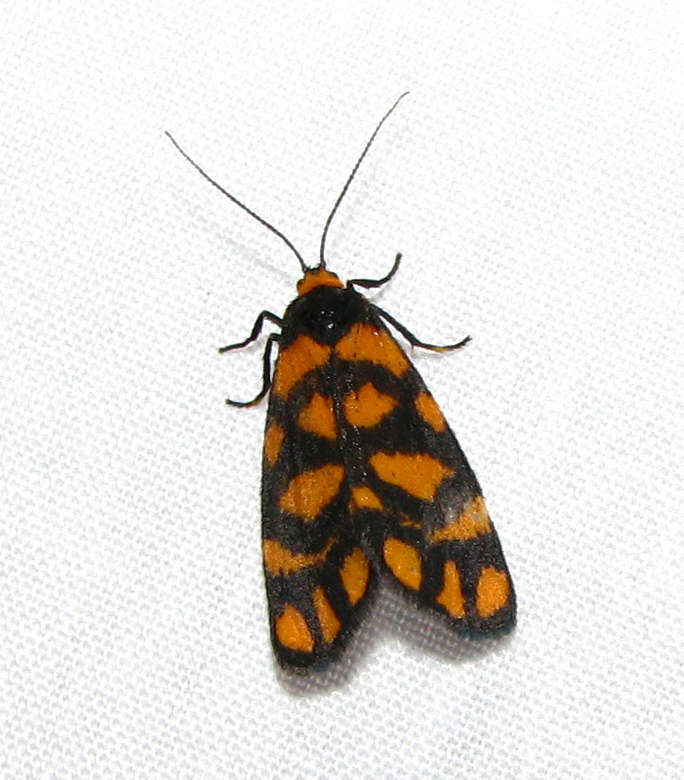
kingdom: Animalia
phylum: Arthropoda
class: Insecta
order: Lepidoptera
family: Erebidae
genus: Asura
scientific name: Asura lydia
